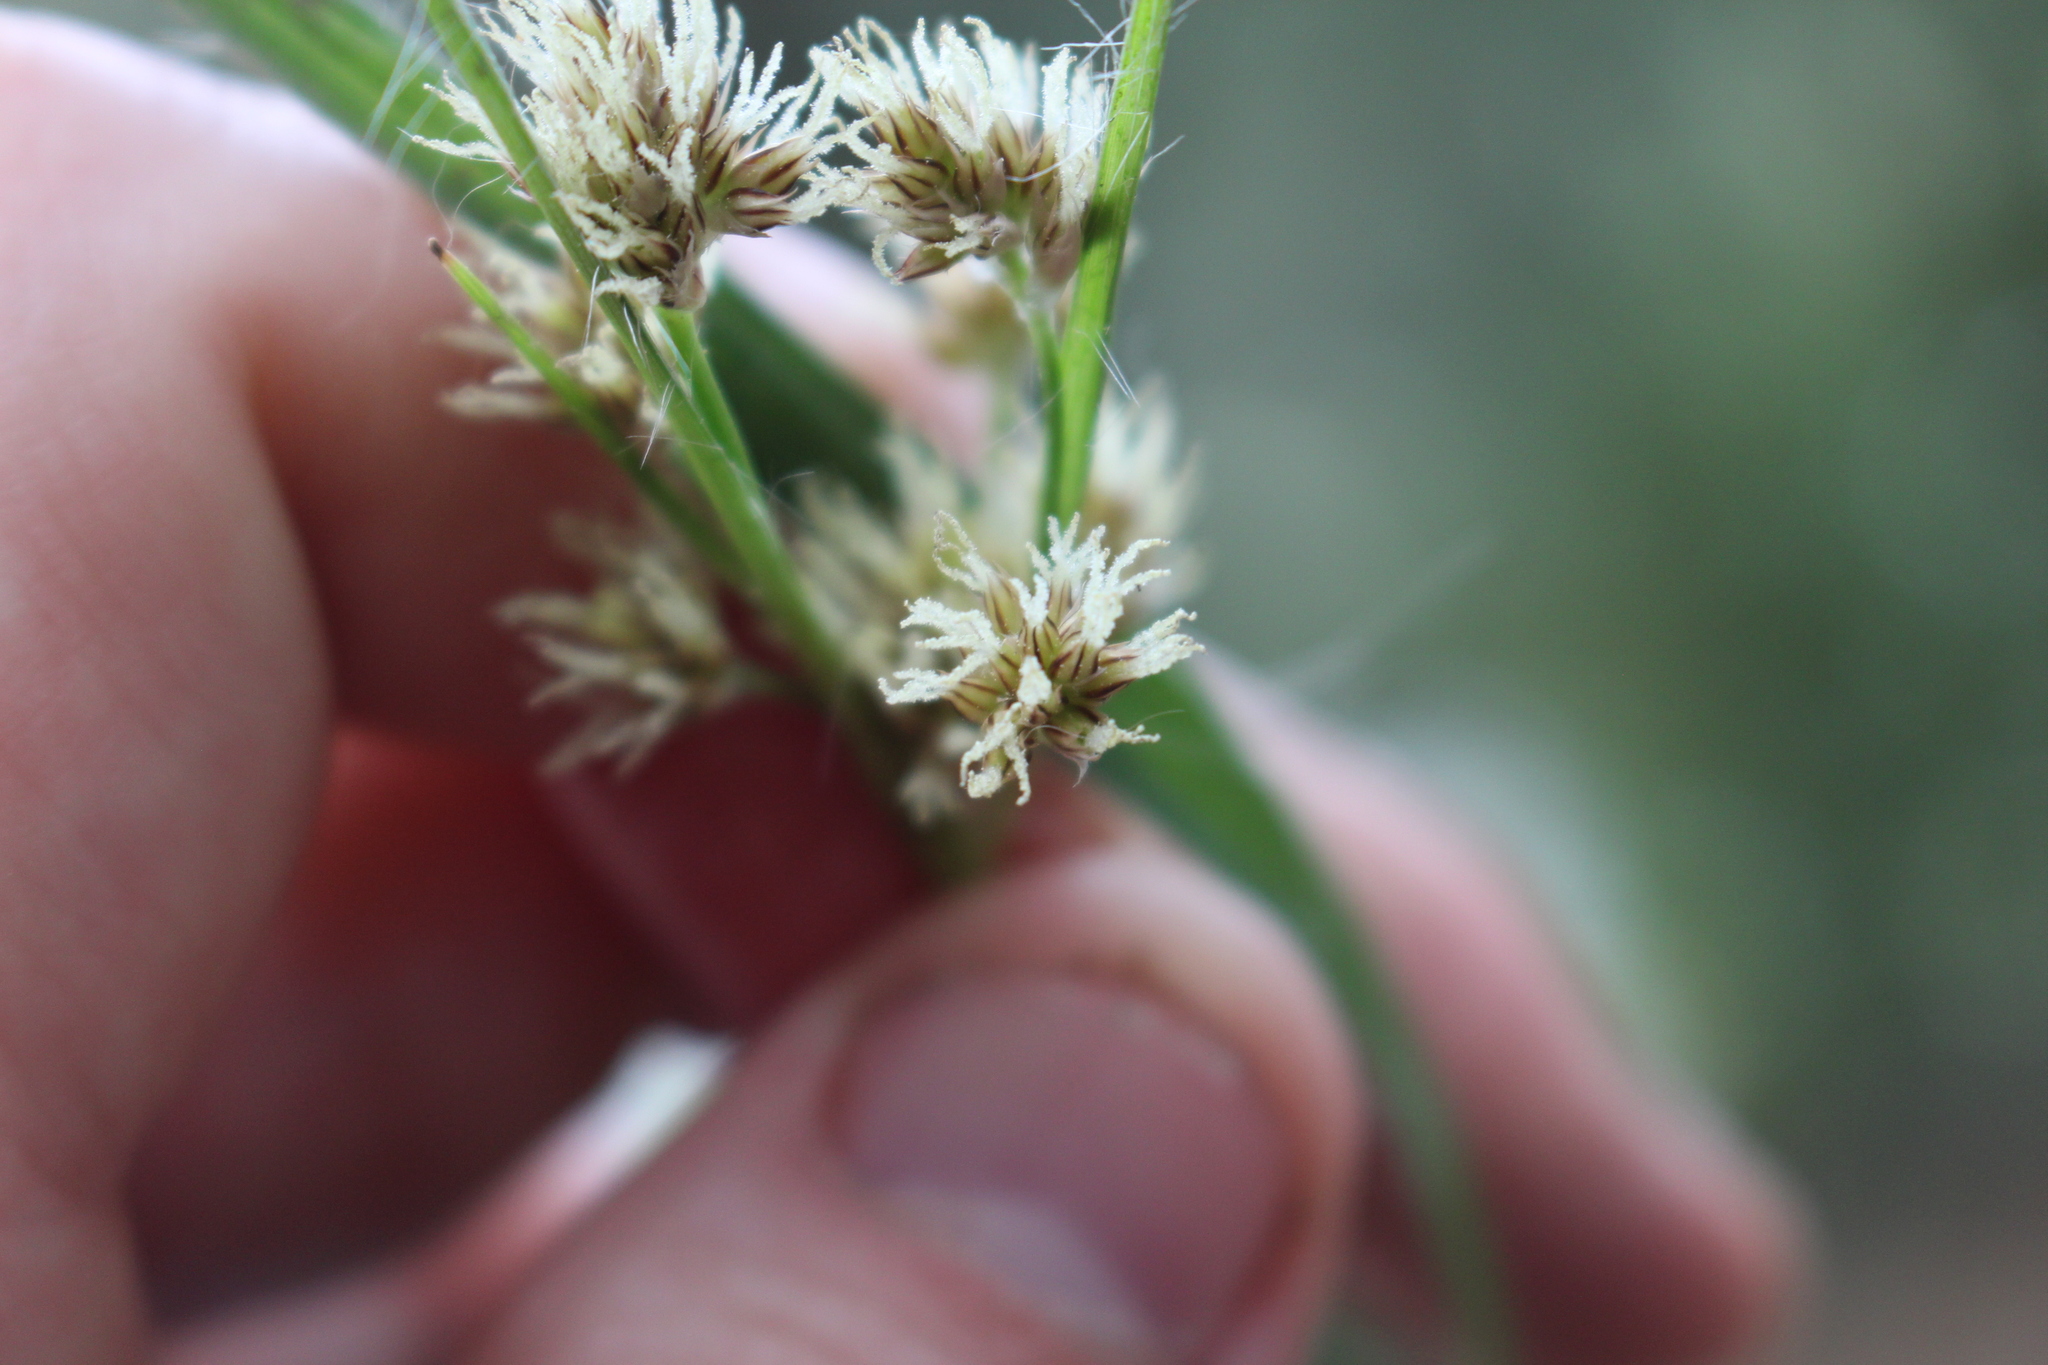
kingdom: Plantae
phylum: Tracheophyta
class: Liliopsida
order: Poales
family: Juncaceae
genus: Luzula
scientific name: Luzula banksiana
